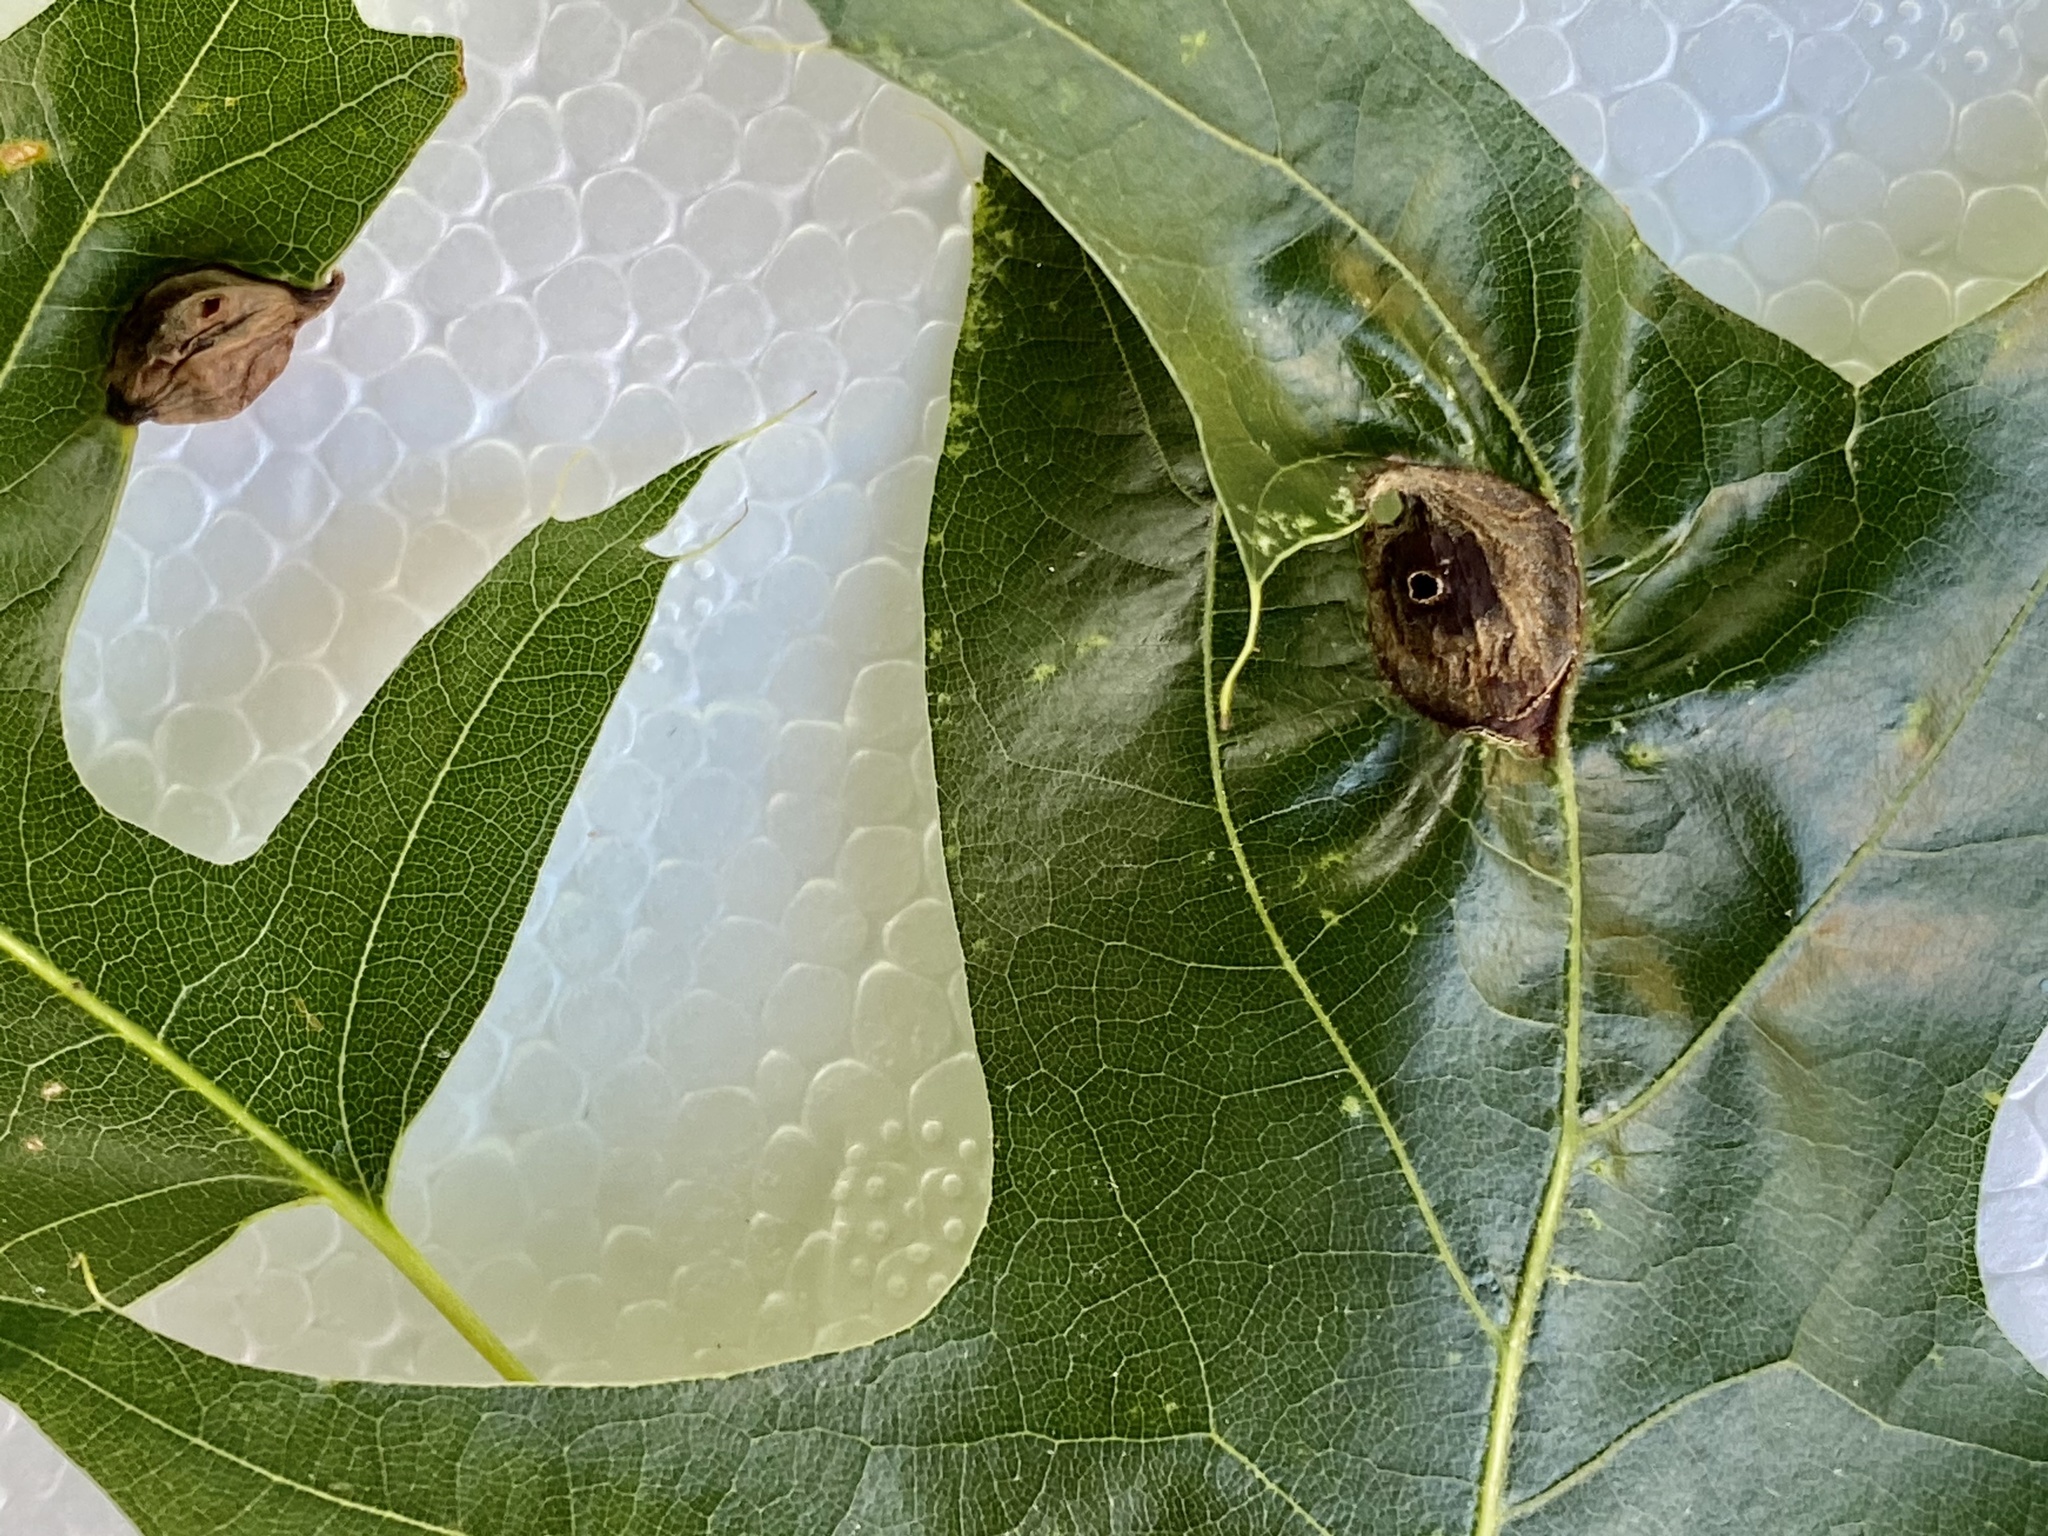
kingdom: Animalia
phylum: Arthropoda
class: Insecta
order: Hymenoptera
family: Cynipidae
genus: Dryocosmus
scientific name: Dryocosmus
